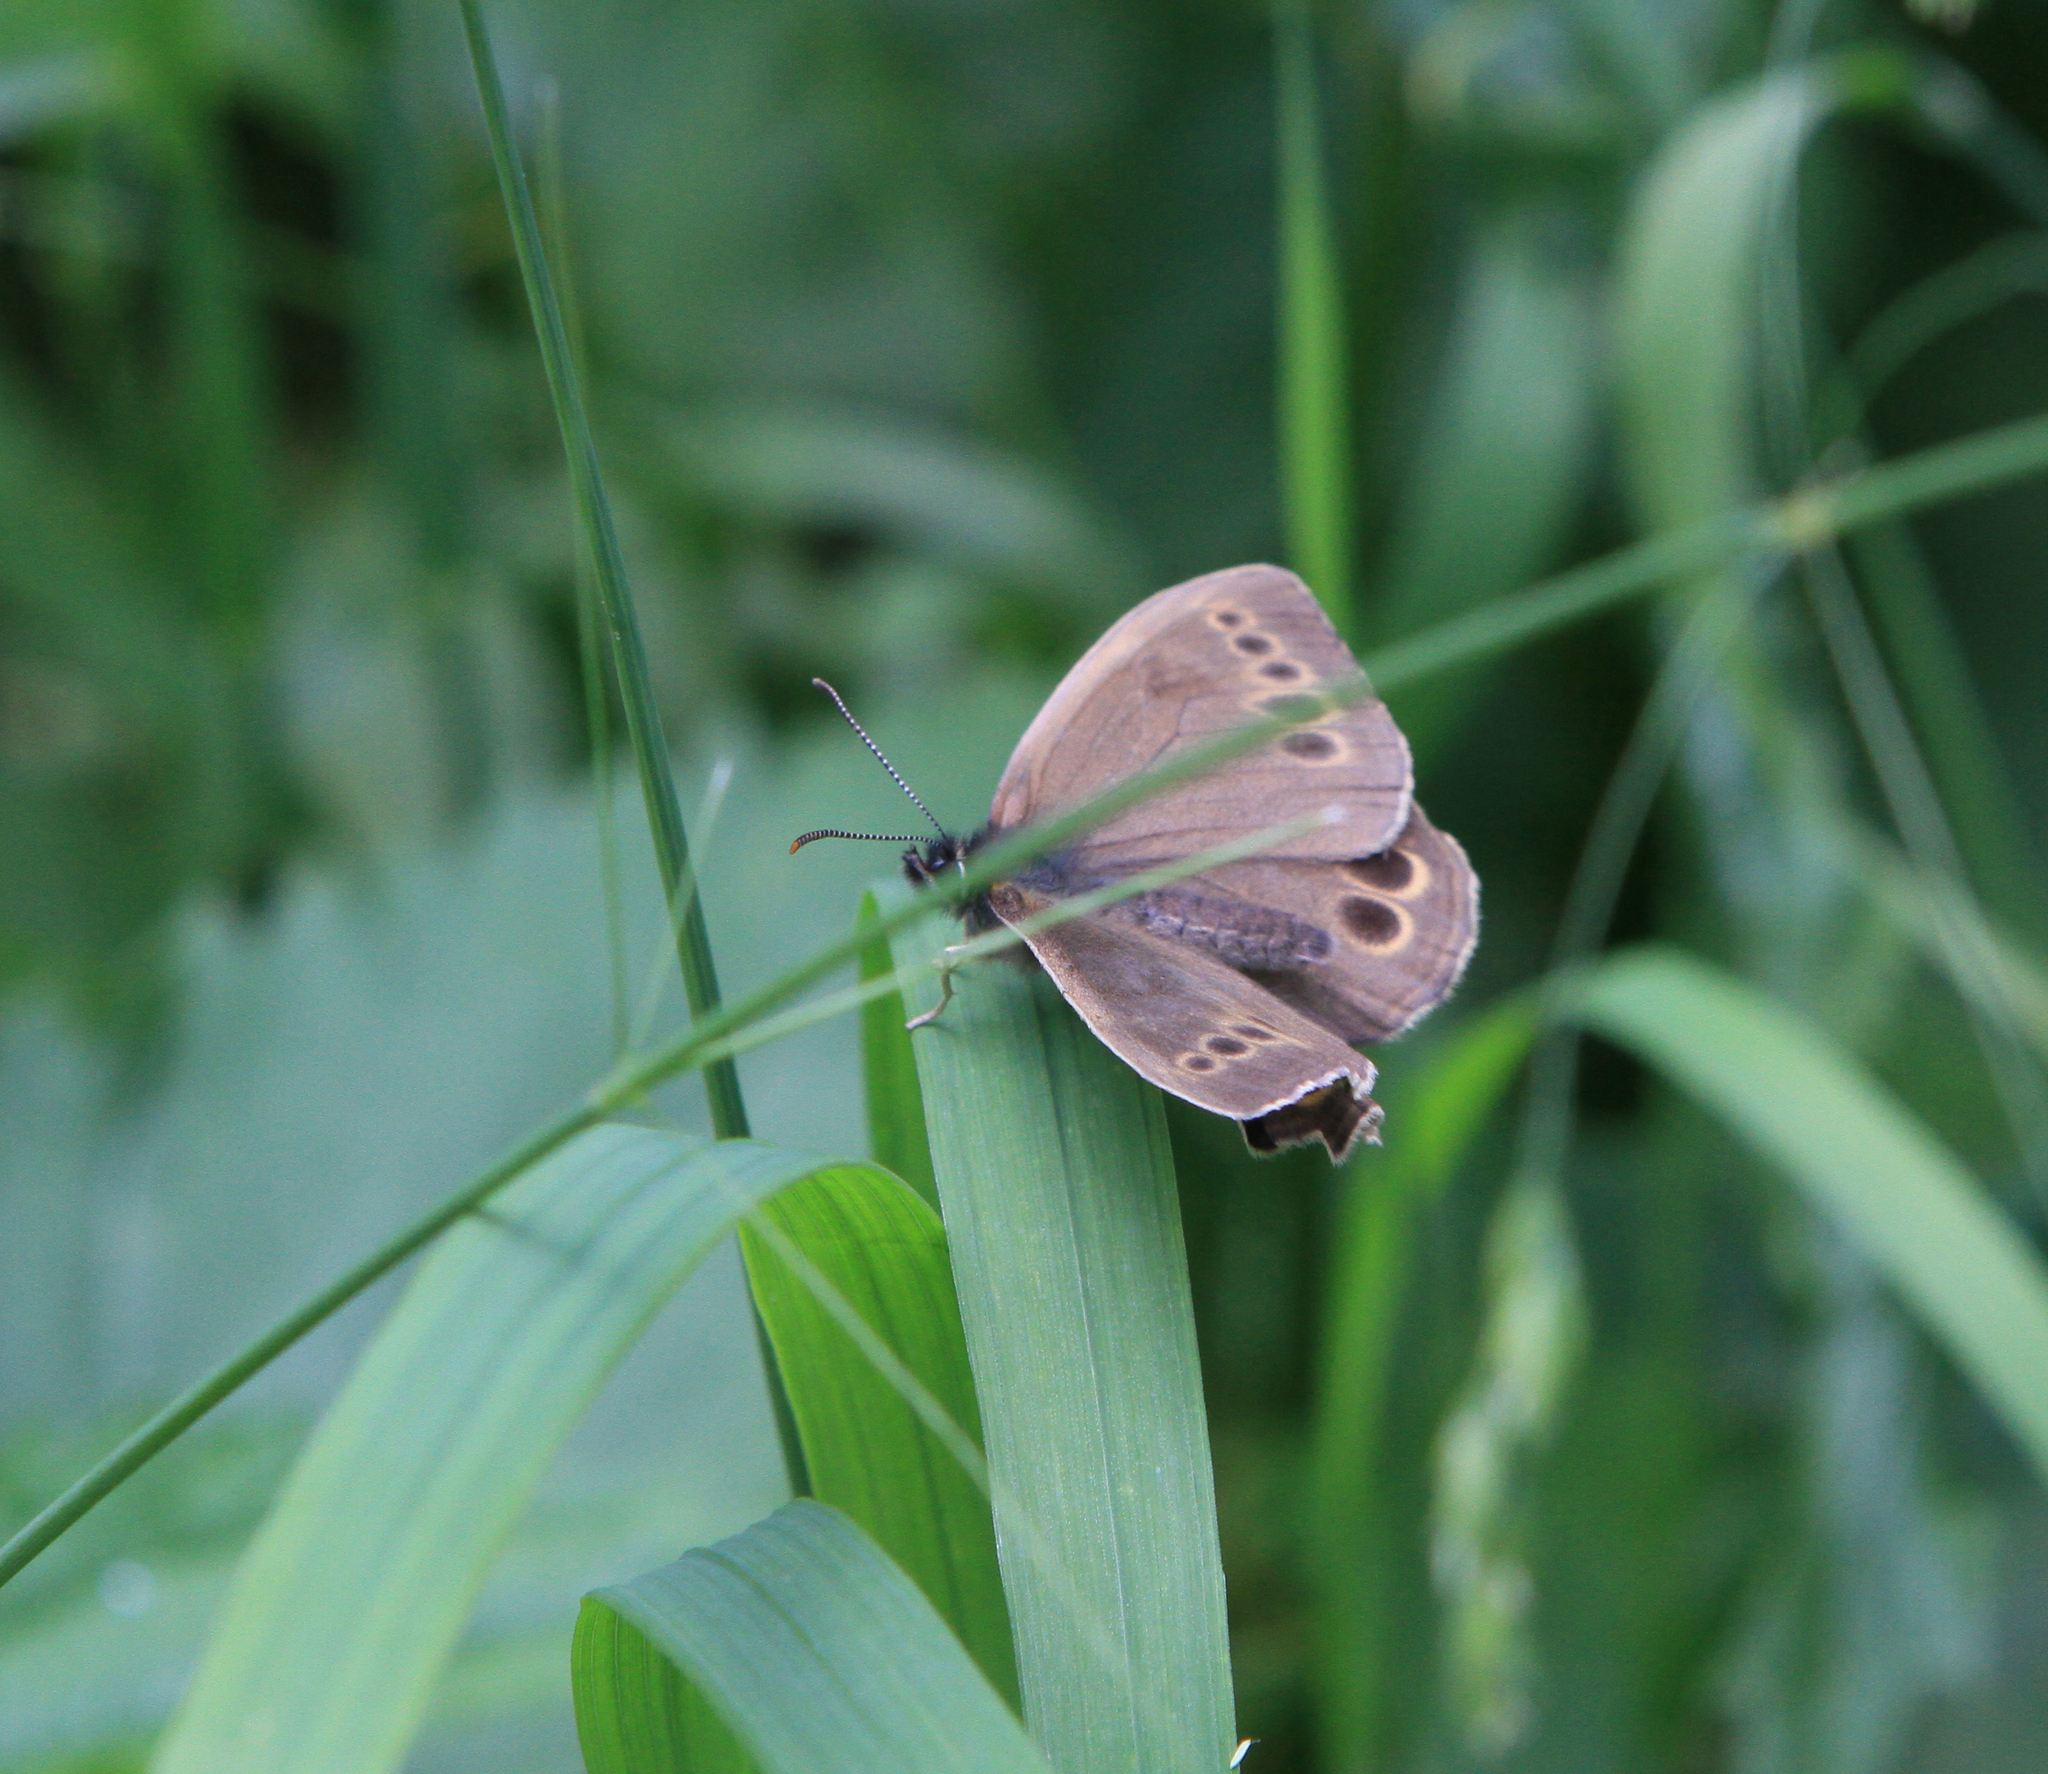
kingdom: Animalia
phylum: Arthropoda
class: Insecta
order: Lepidoptera
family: Nymphalidae
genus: Pararge
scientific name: Pararge Lopinga achine
